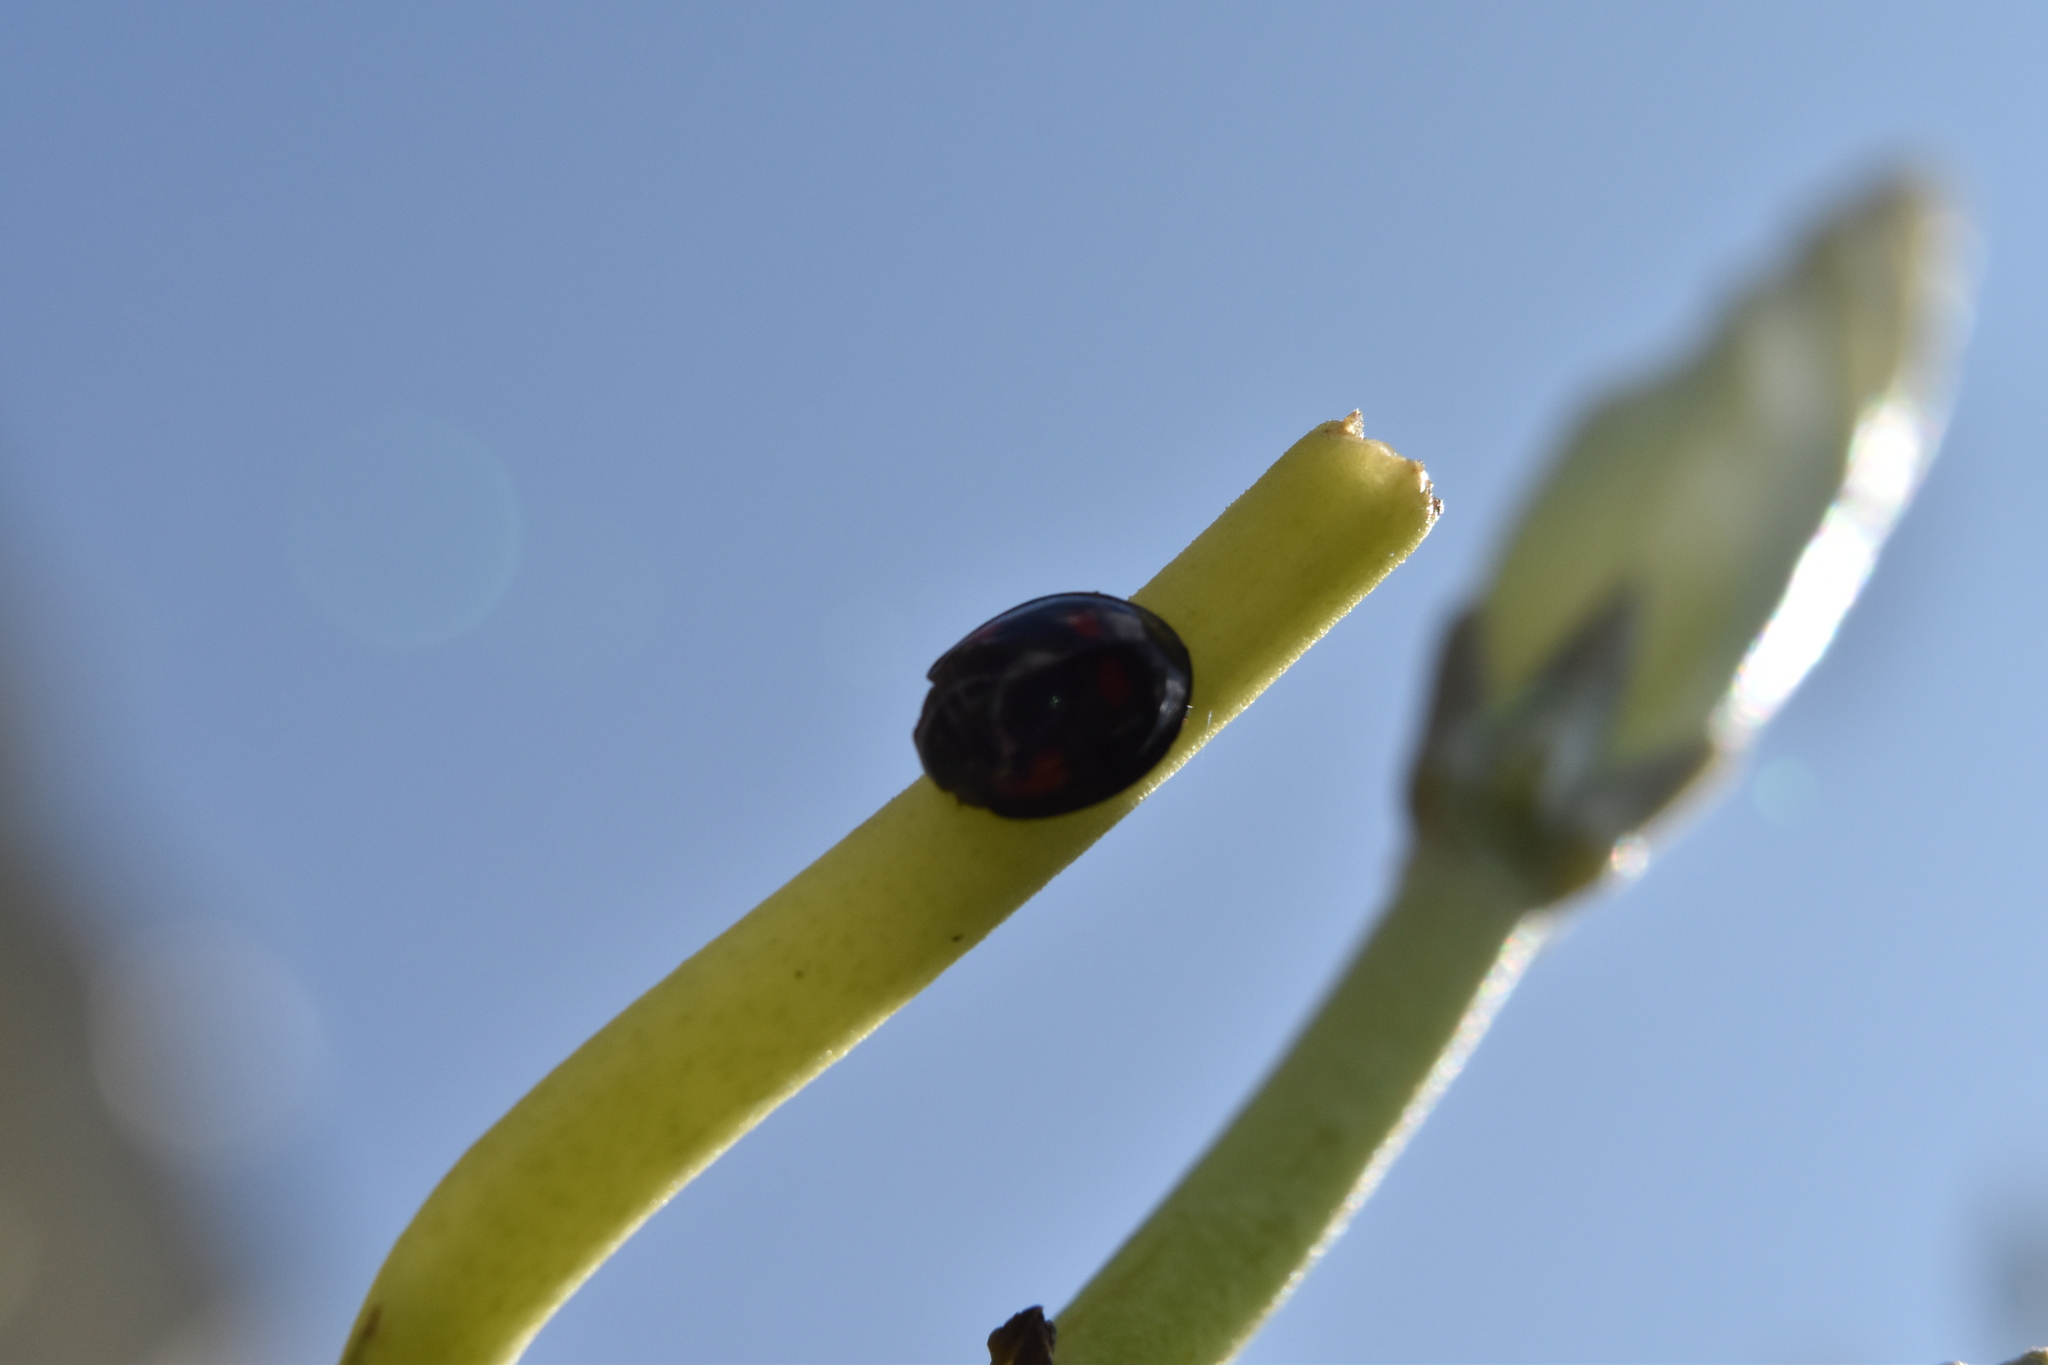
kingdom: Animalia
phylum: Arthropoda
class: Insecta
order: Coleoptera
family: Coccinellidae
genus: Brumus
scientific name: Brumus quadripustulatus
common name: Ladybird beetle
